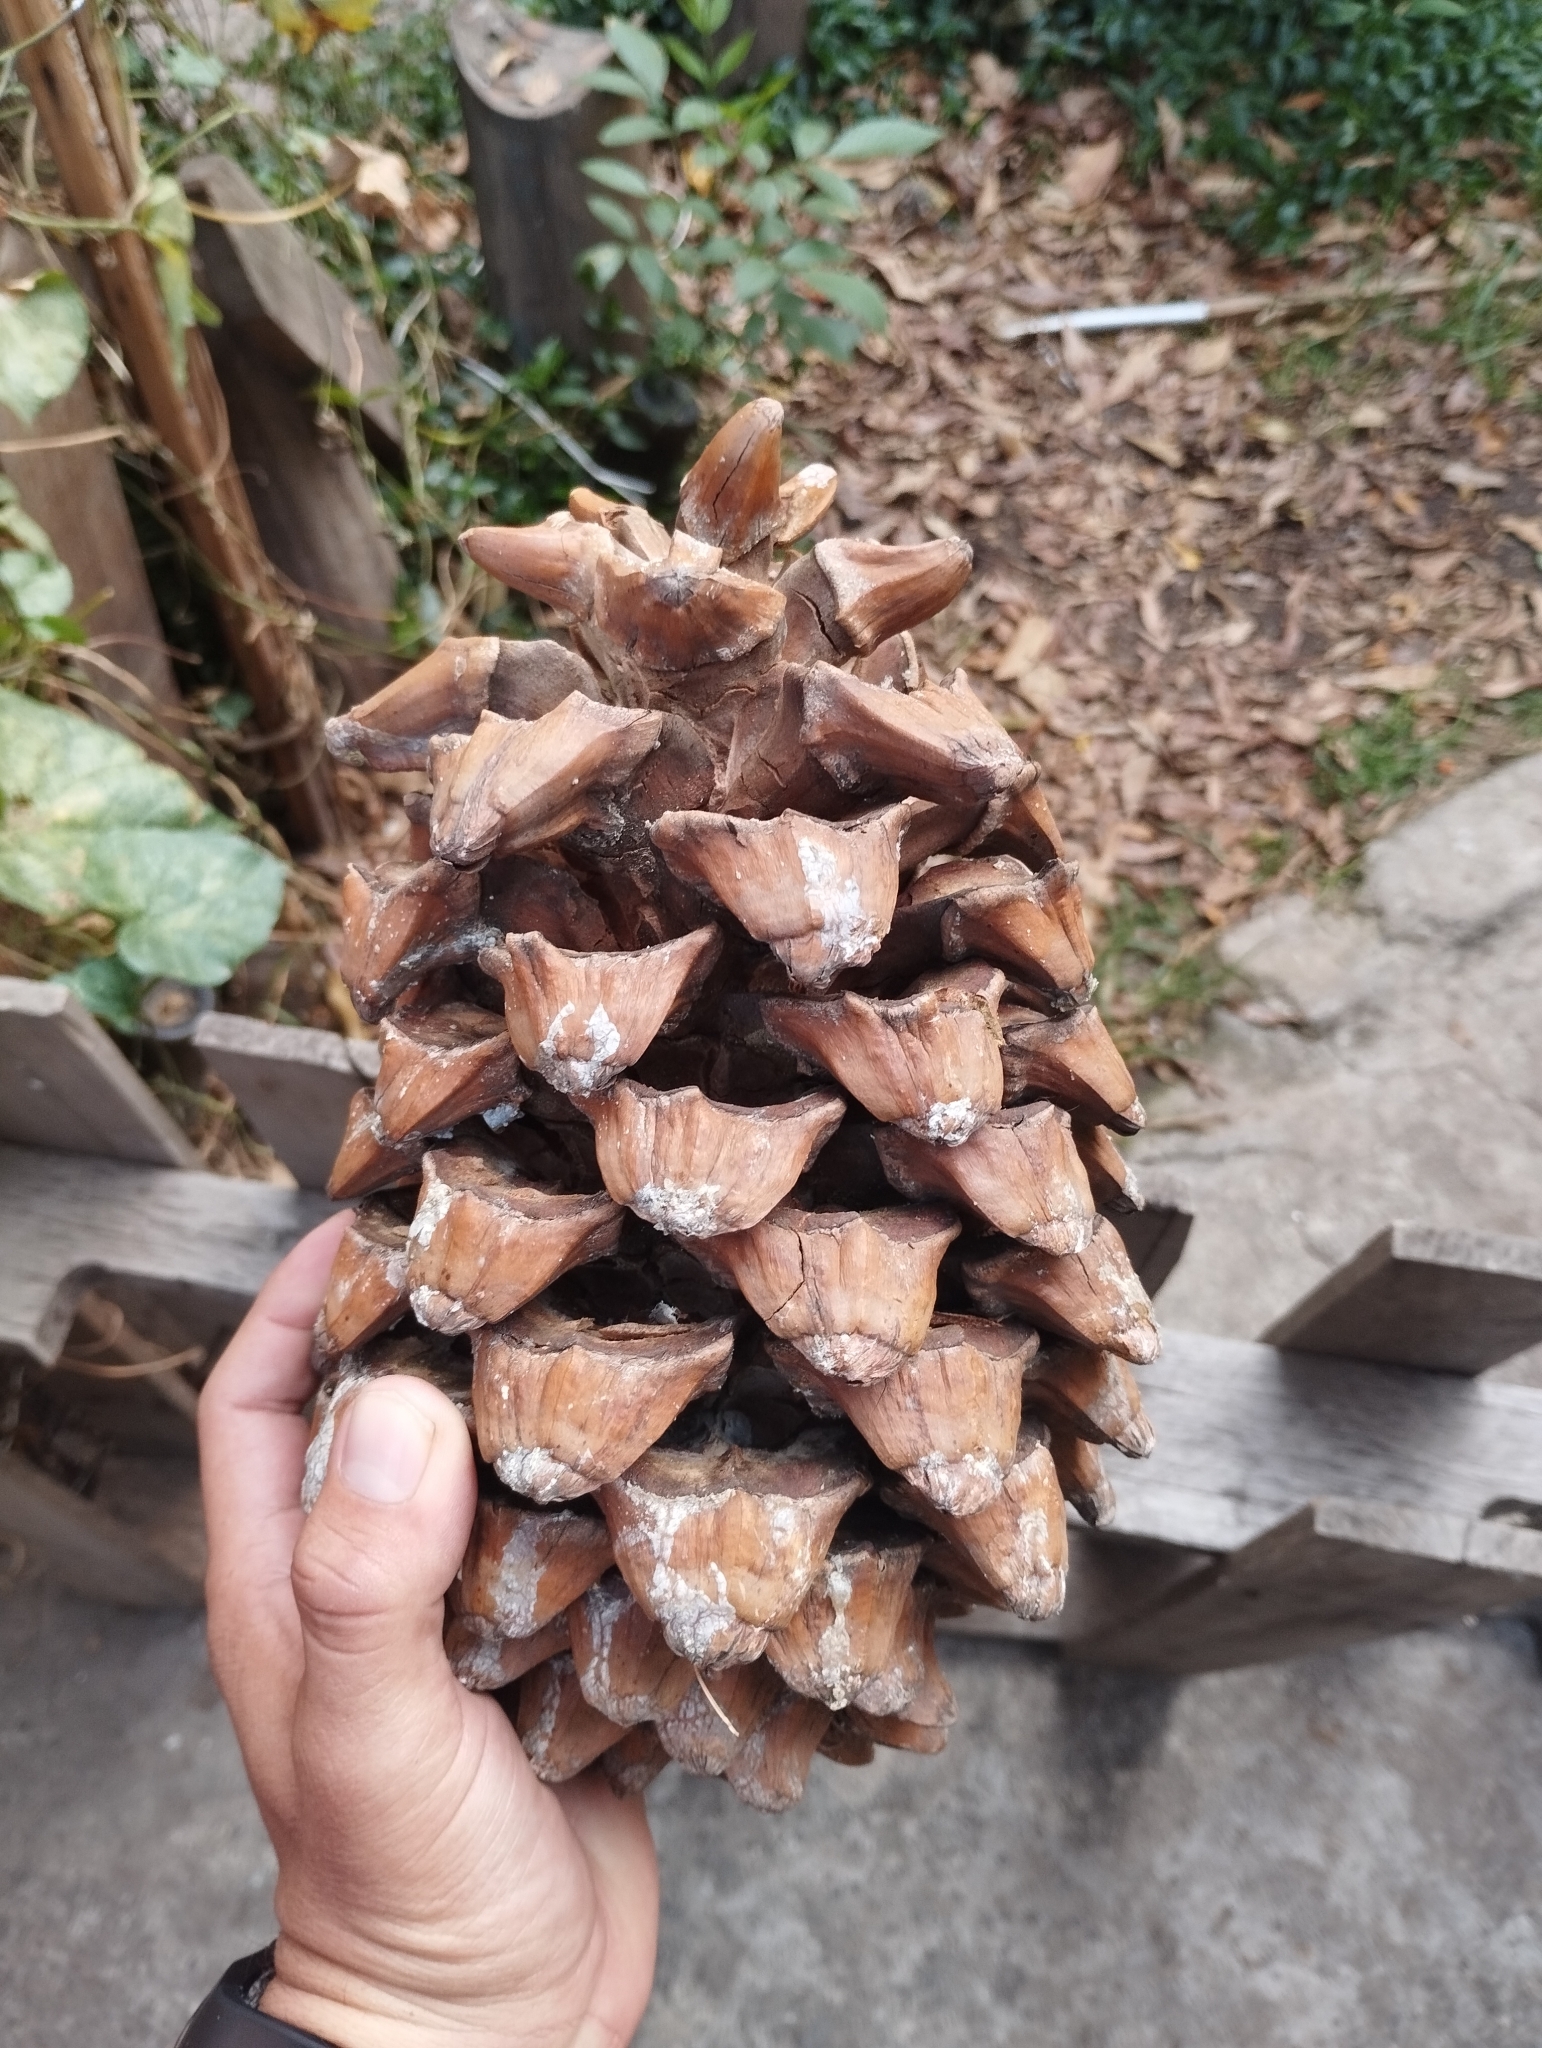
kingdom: Plantae
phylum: Tracheophyta
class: Pinopsida
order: Pinales
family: Pinaceae
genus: Pinus
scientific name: Pinus maximartinezii
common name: Big-cone pinyon
